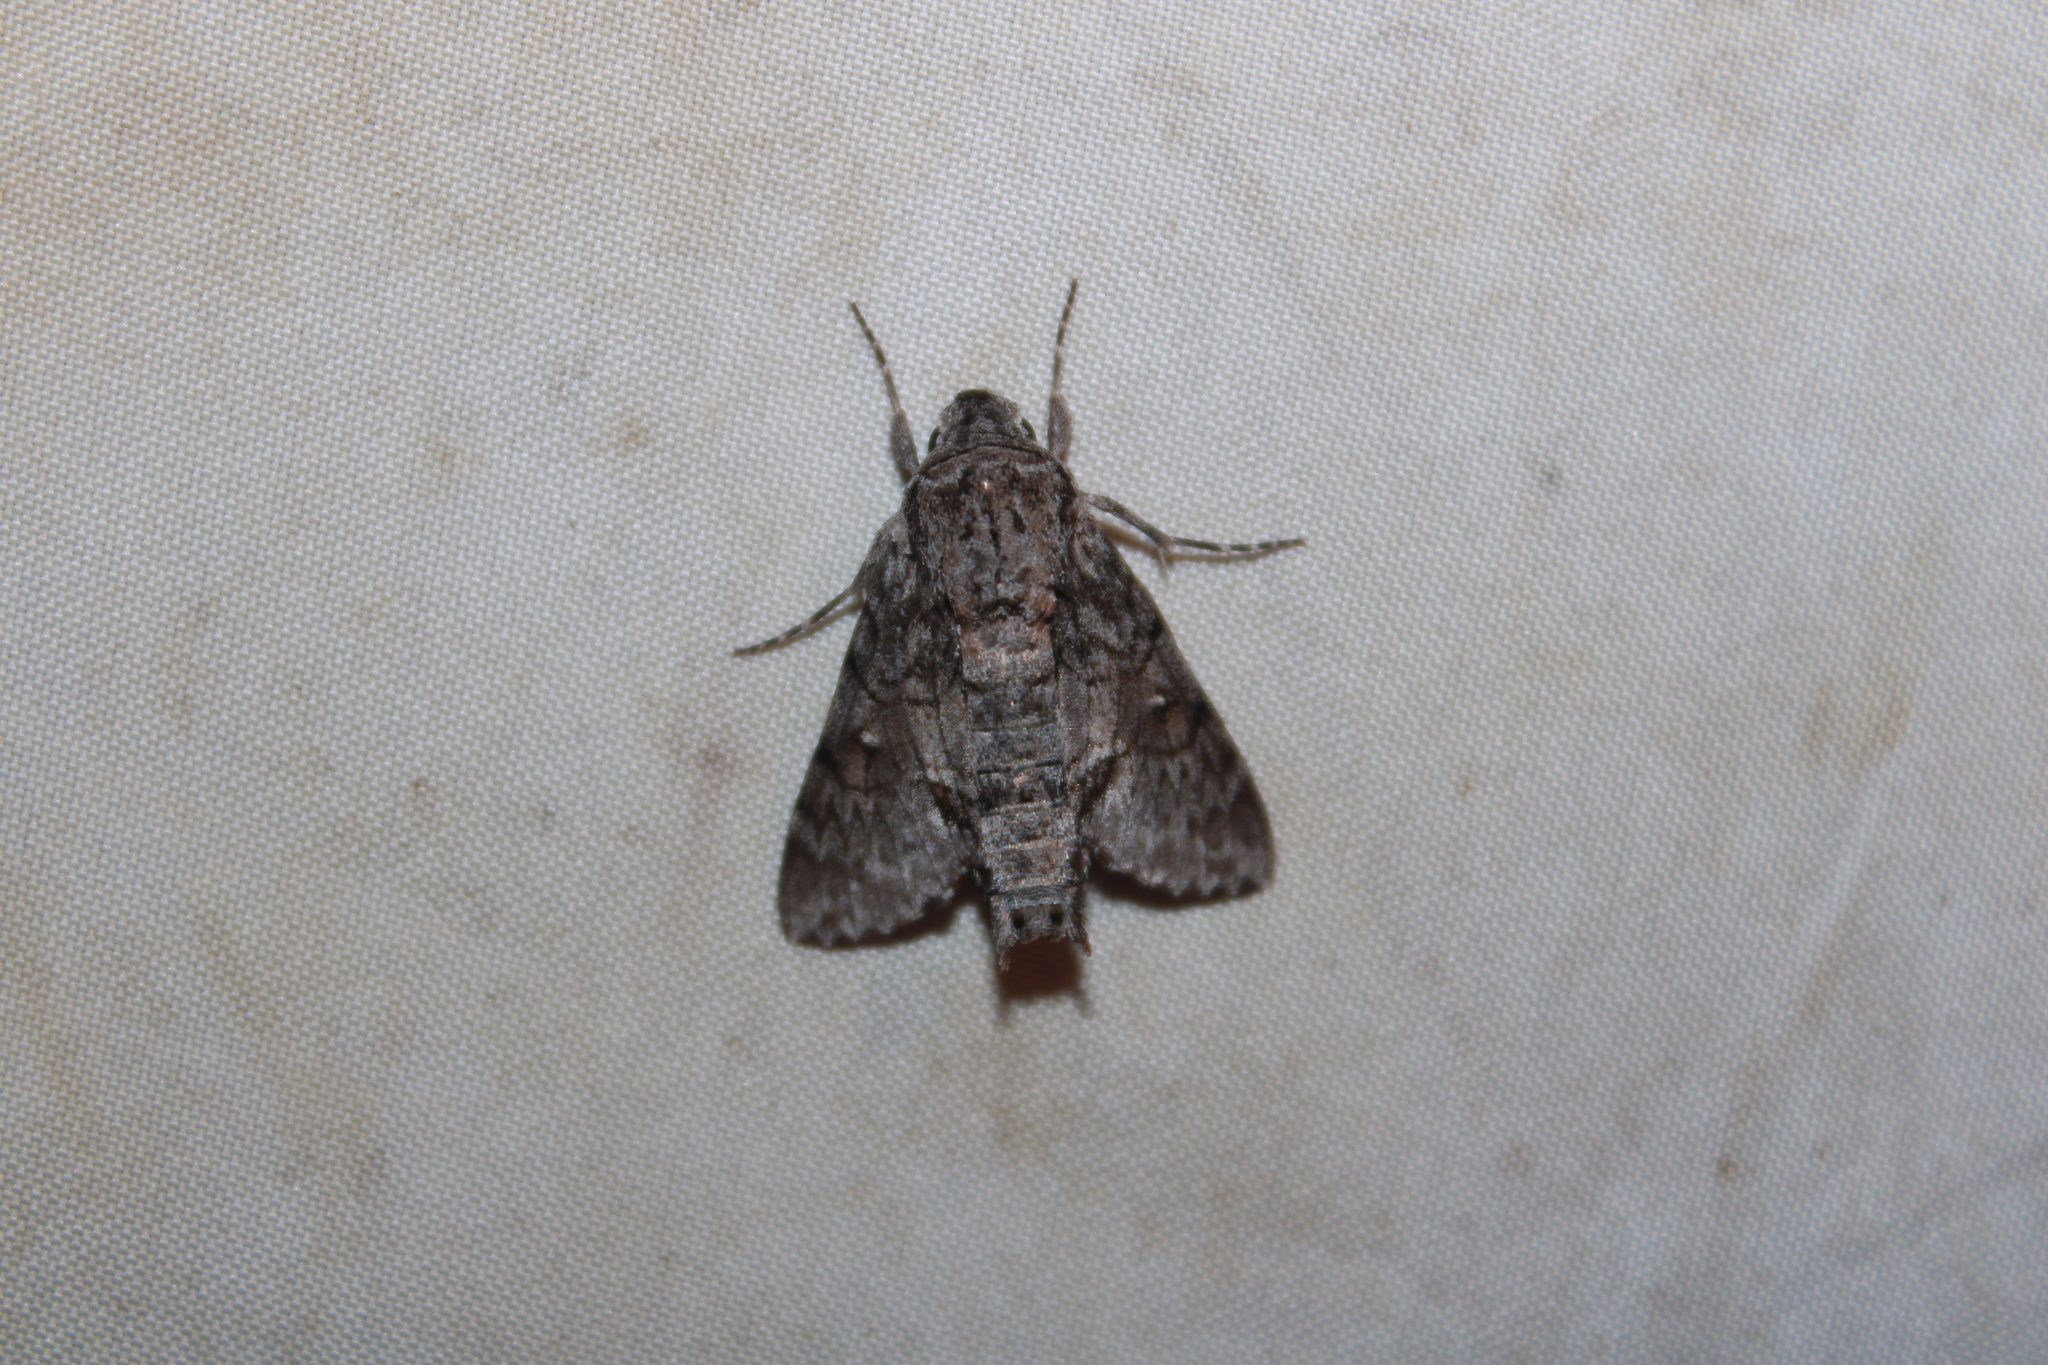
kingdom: Animalia
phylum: Arthropoda
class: Insecta
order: Lepidoptera
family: Sphingidae
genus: Cautethia
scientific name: Cautethia grotei
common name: Grote's sphinx
